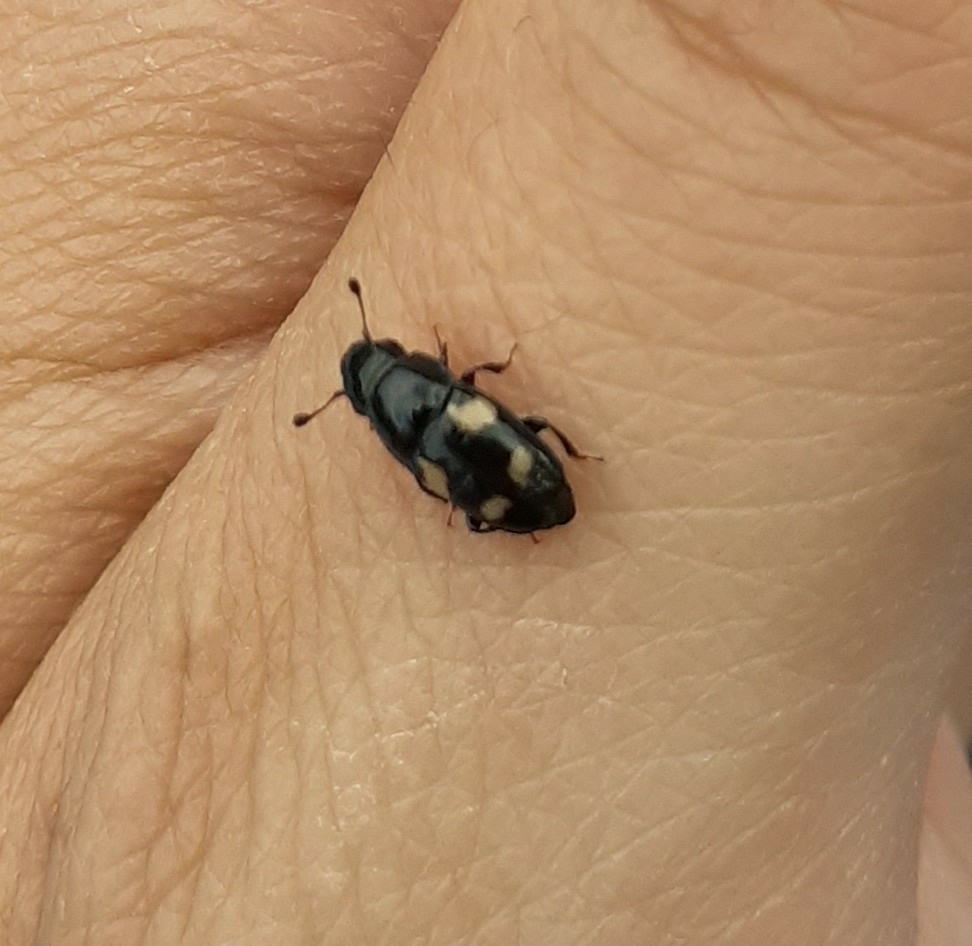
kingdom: Animalia
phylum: Arthropoda
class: Insecta
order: Coleoptera
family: Nitidulidae
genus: Glischrochilus
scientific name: Glischrochilus quadrisignatus
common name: Picnic beetle
